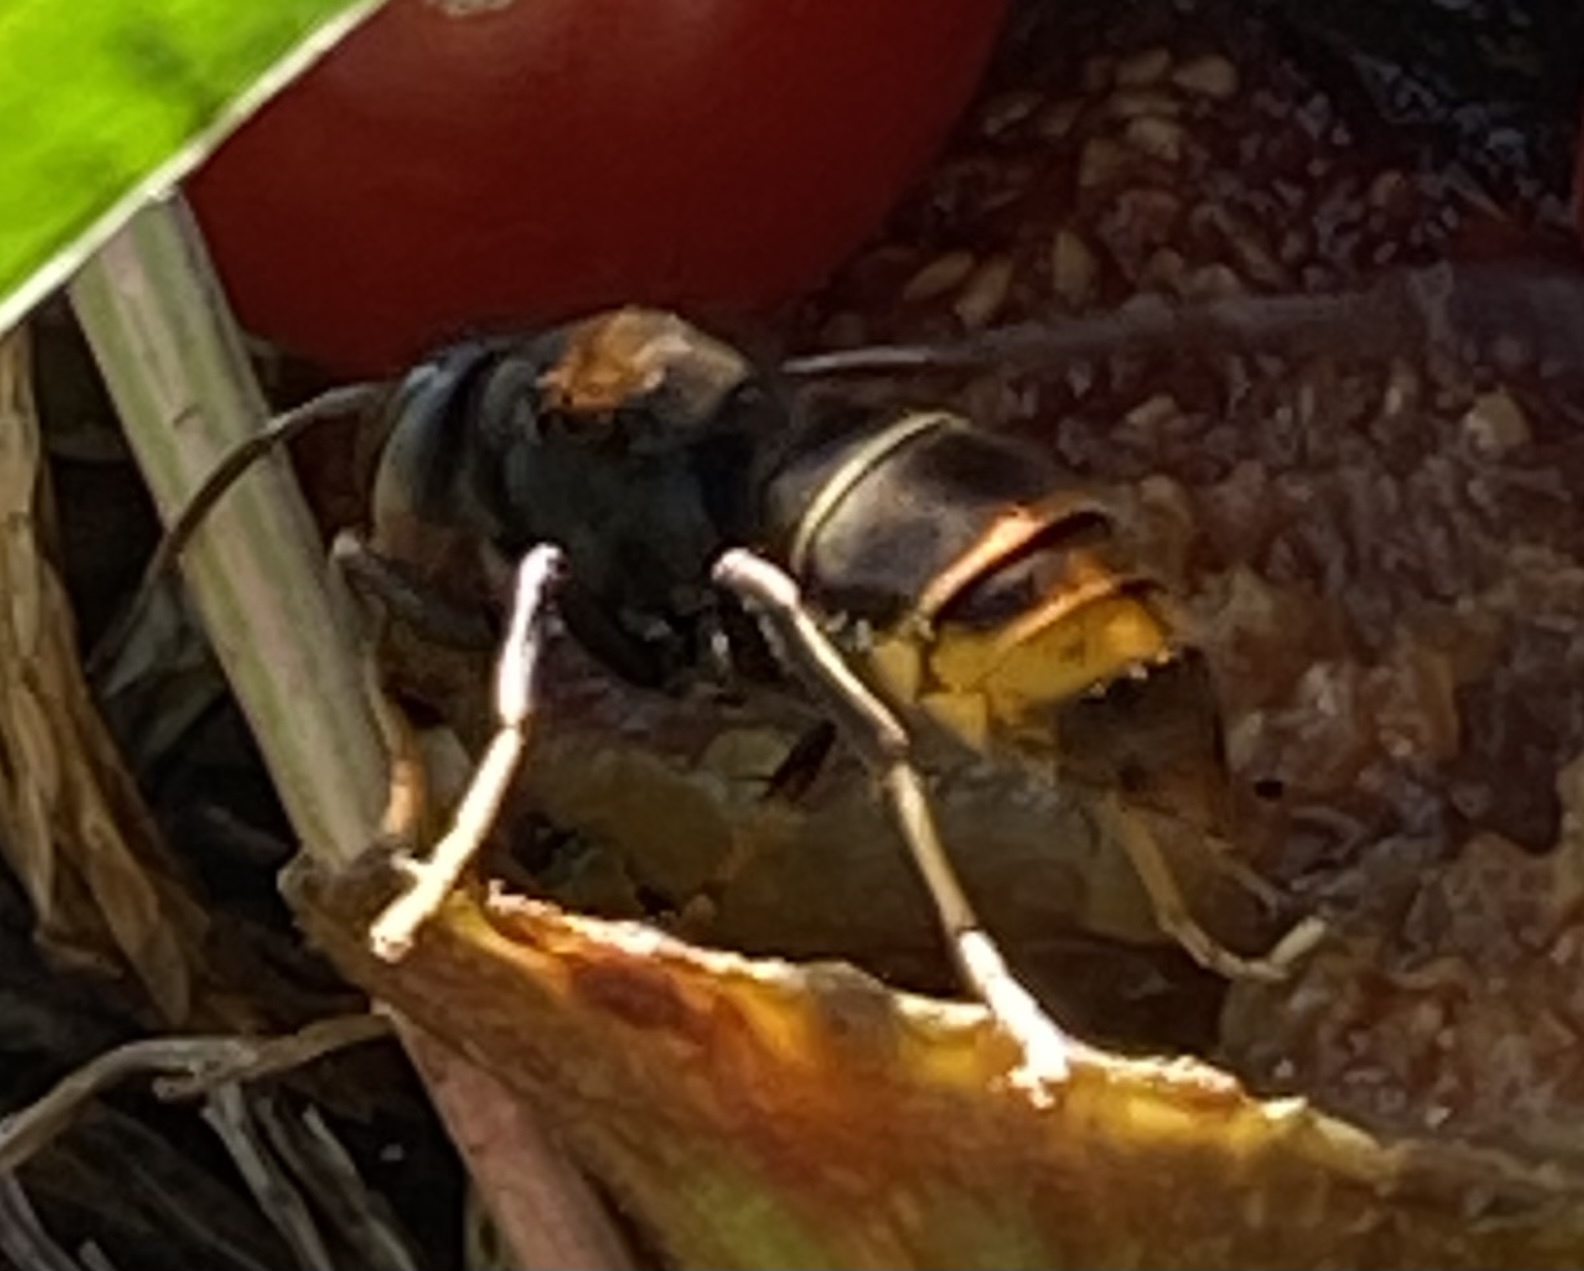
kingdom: Animalia
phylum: Arthropoda
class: Insecta
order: Hymenoptera
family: Vespidae
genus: Vespa
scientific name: Vespa velutina
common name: Asian hornet
